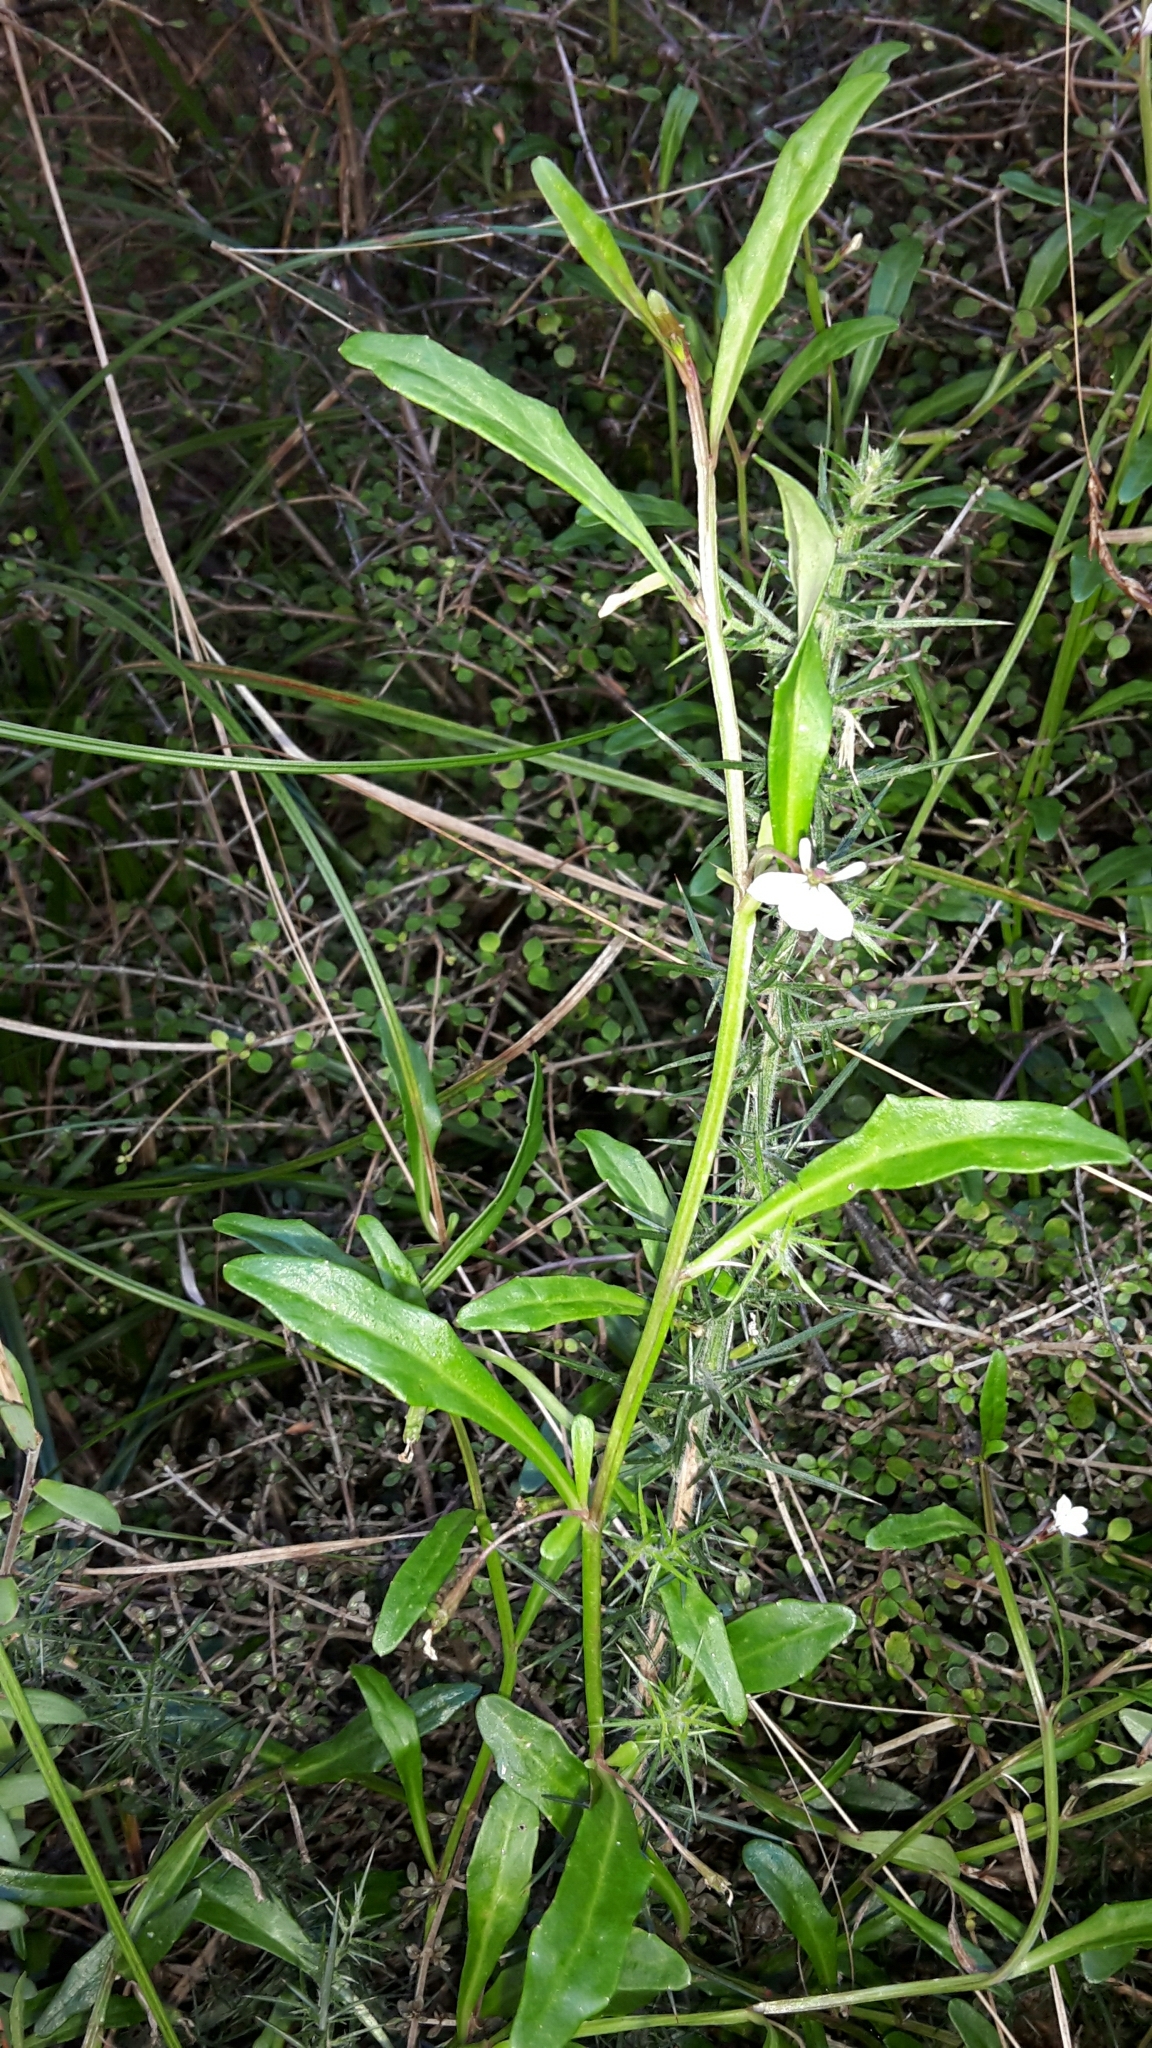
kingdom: Plantae
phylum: Tracheophyta
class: Magnoliopsida
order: Asterales
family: Campanulaceae
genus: Lobelia
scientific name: Lobelia anceps
